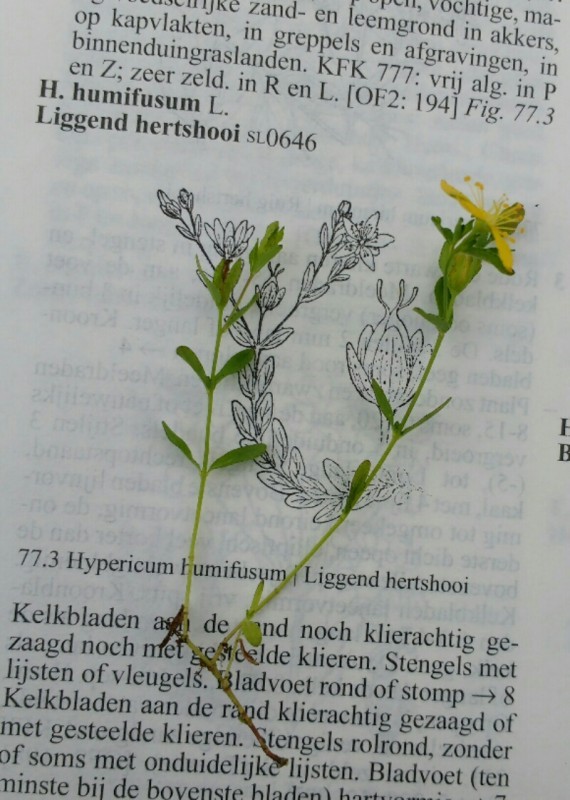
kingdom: Plantae
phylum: Tracheophyta
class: Magnoliopsida
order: Malpighiales
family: Hypericaceae
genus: Hypericum
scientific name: Hypericum humifusum
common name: Trailing st. john's-wort
